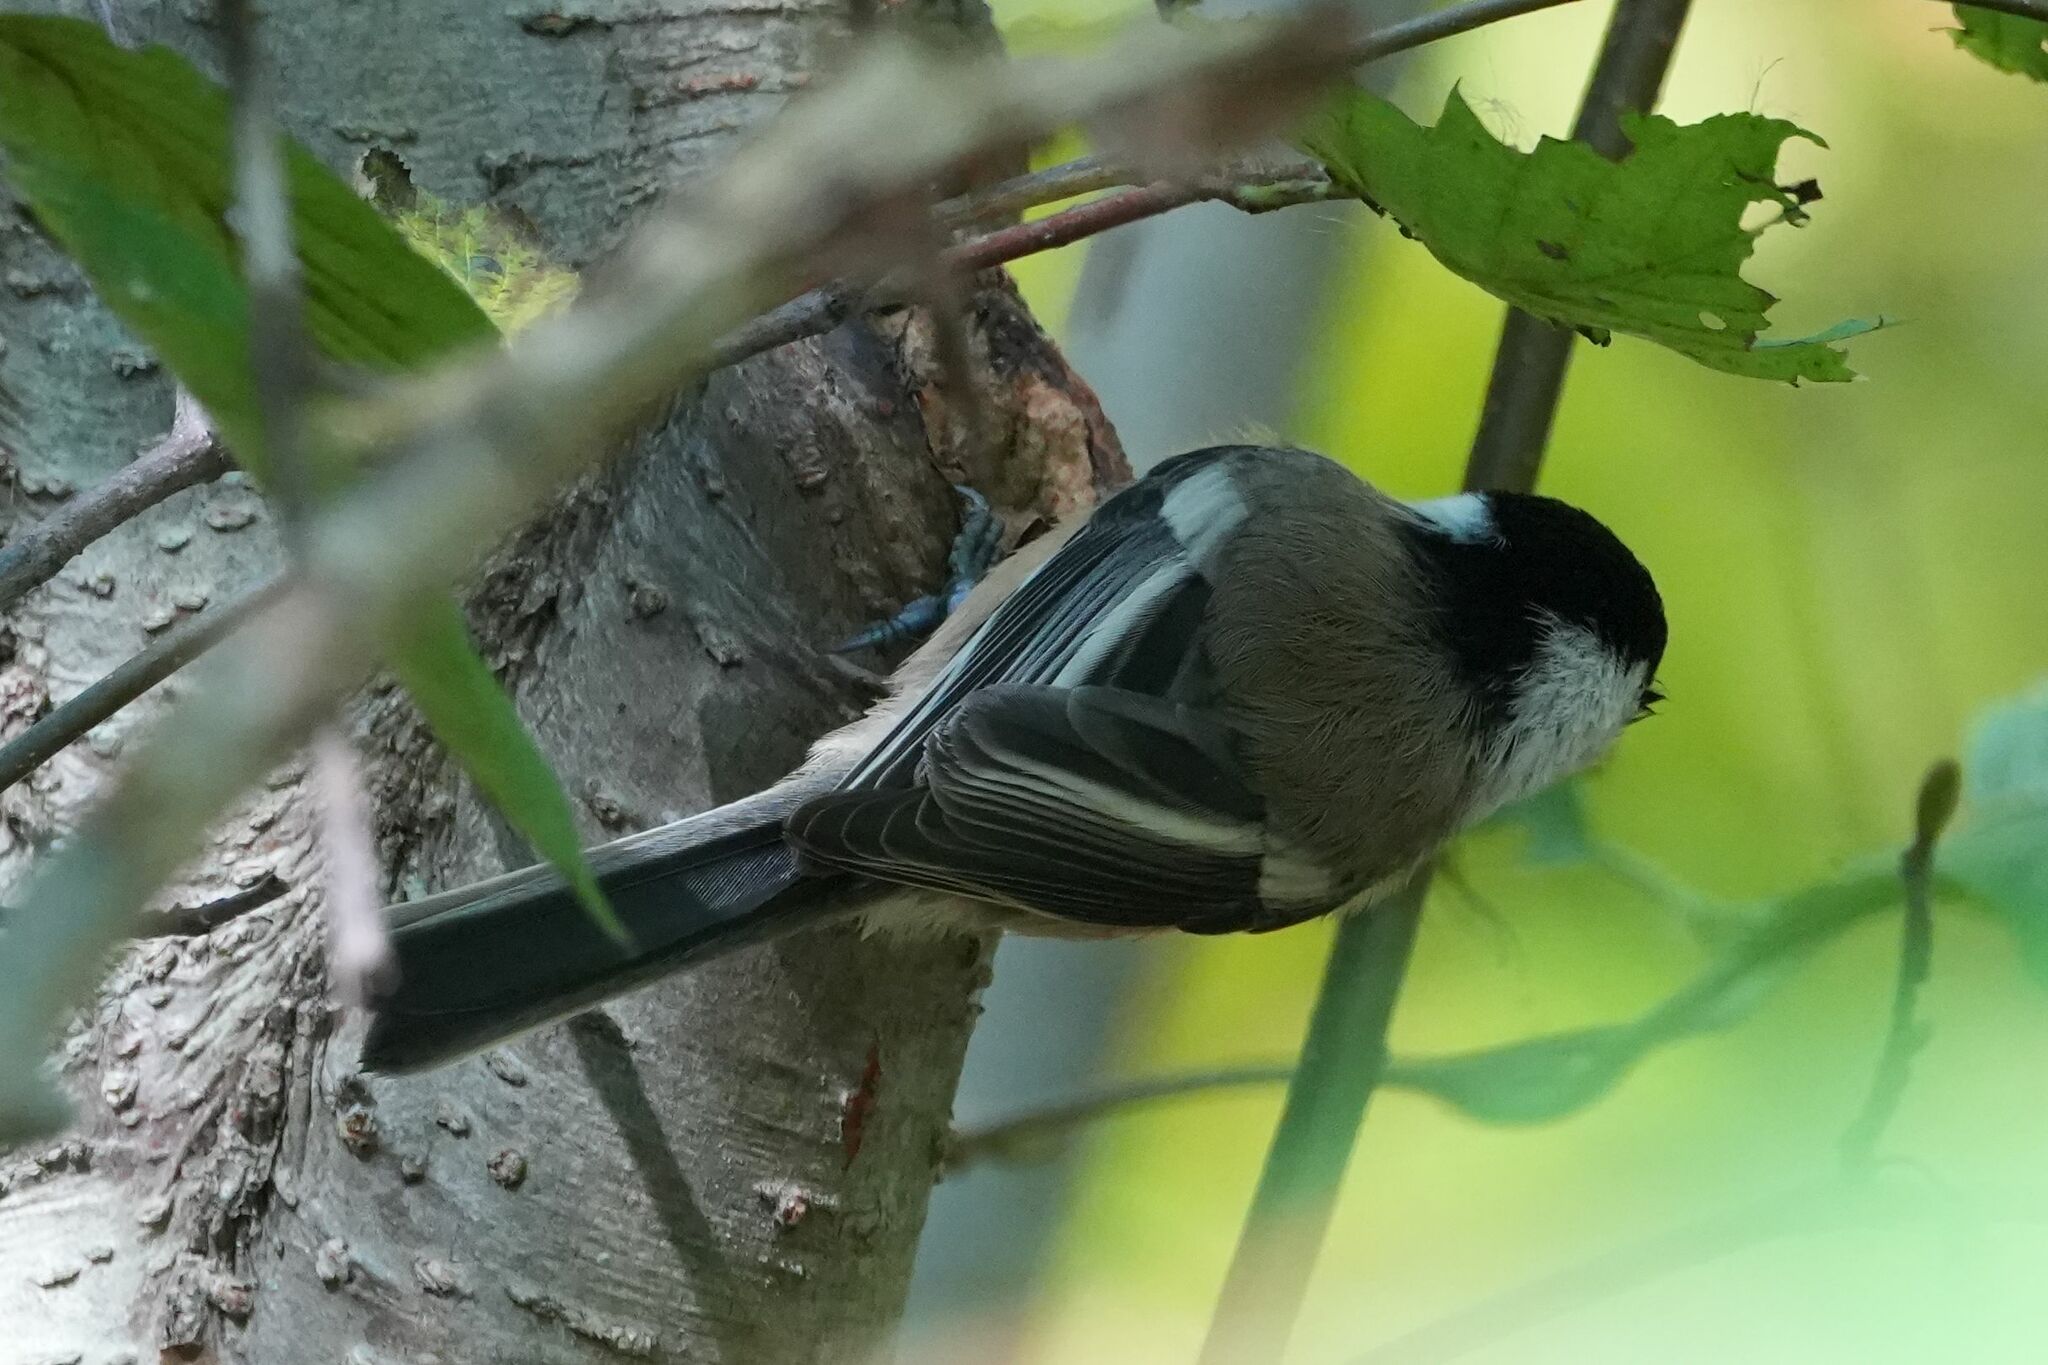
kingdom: Animalia
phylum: Chordata
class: Aves
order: Passeriformes
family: Paridae
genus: Poecile
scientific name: Poecile atricapillus
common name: Black-capped chickadee
